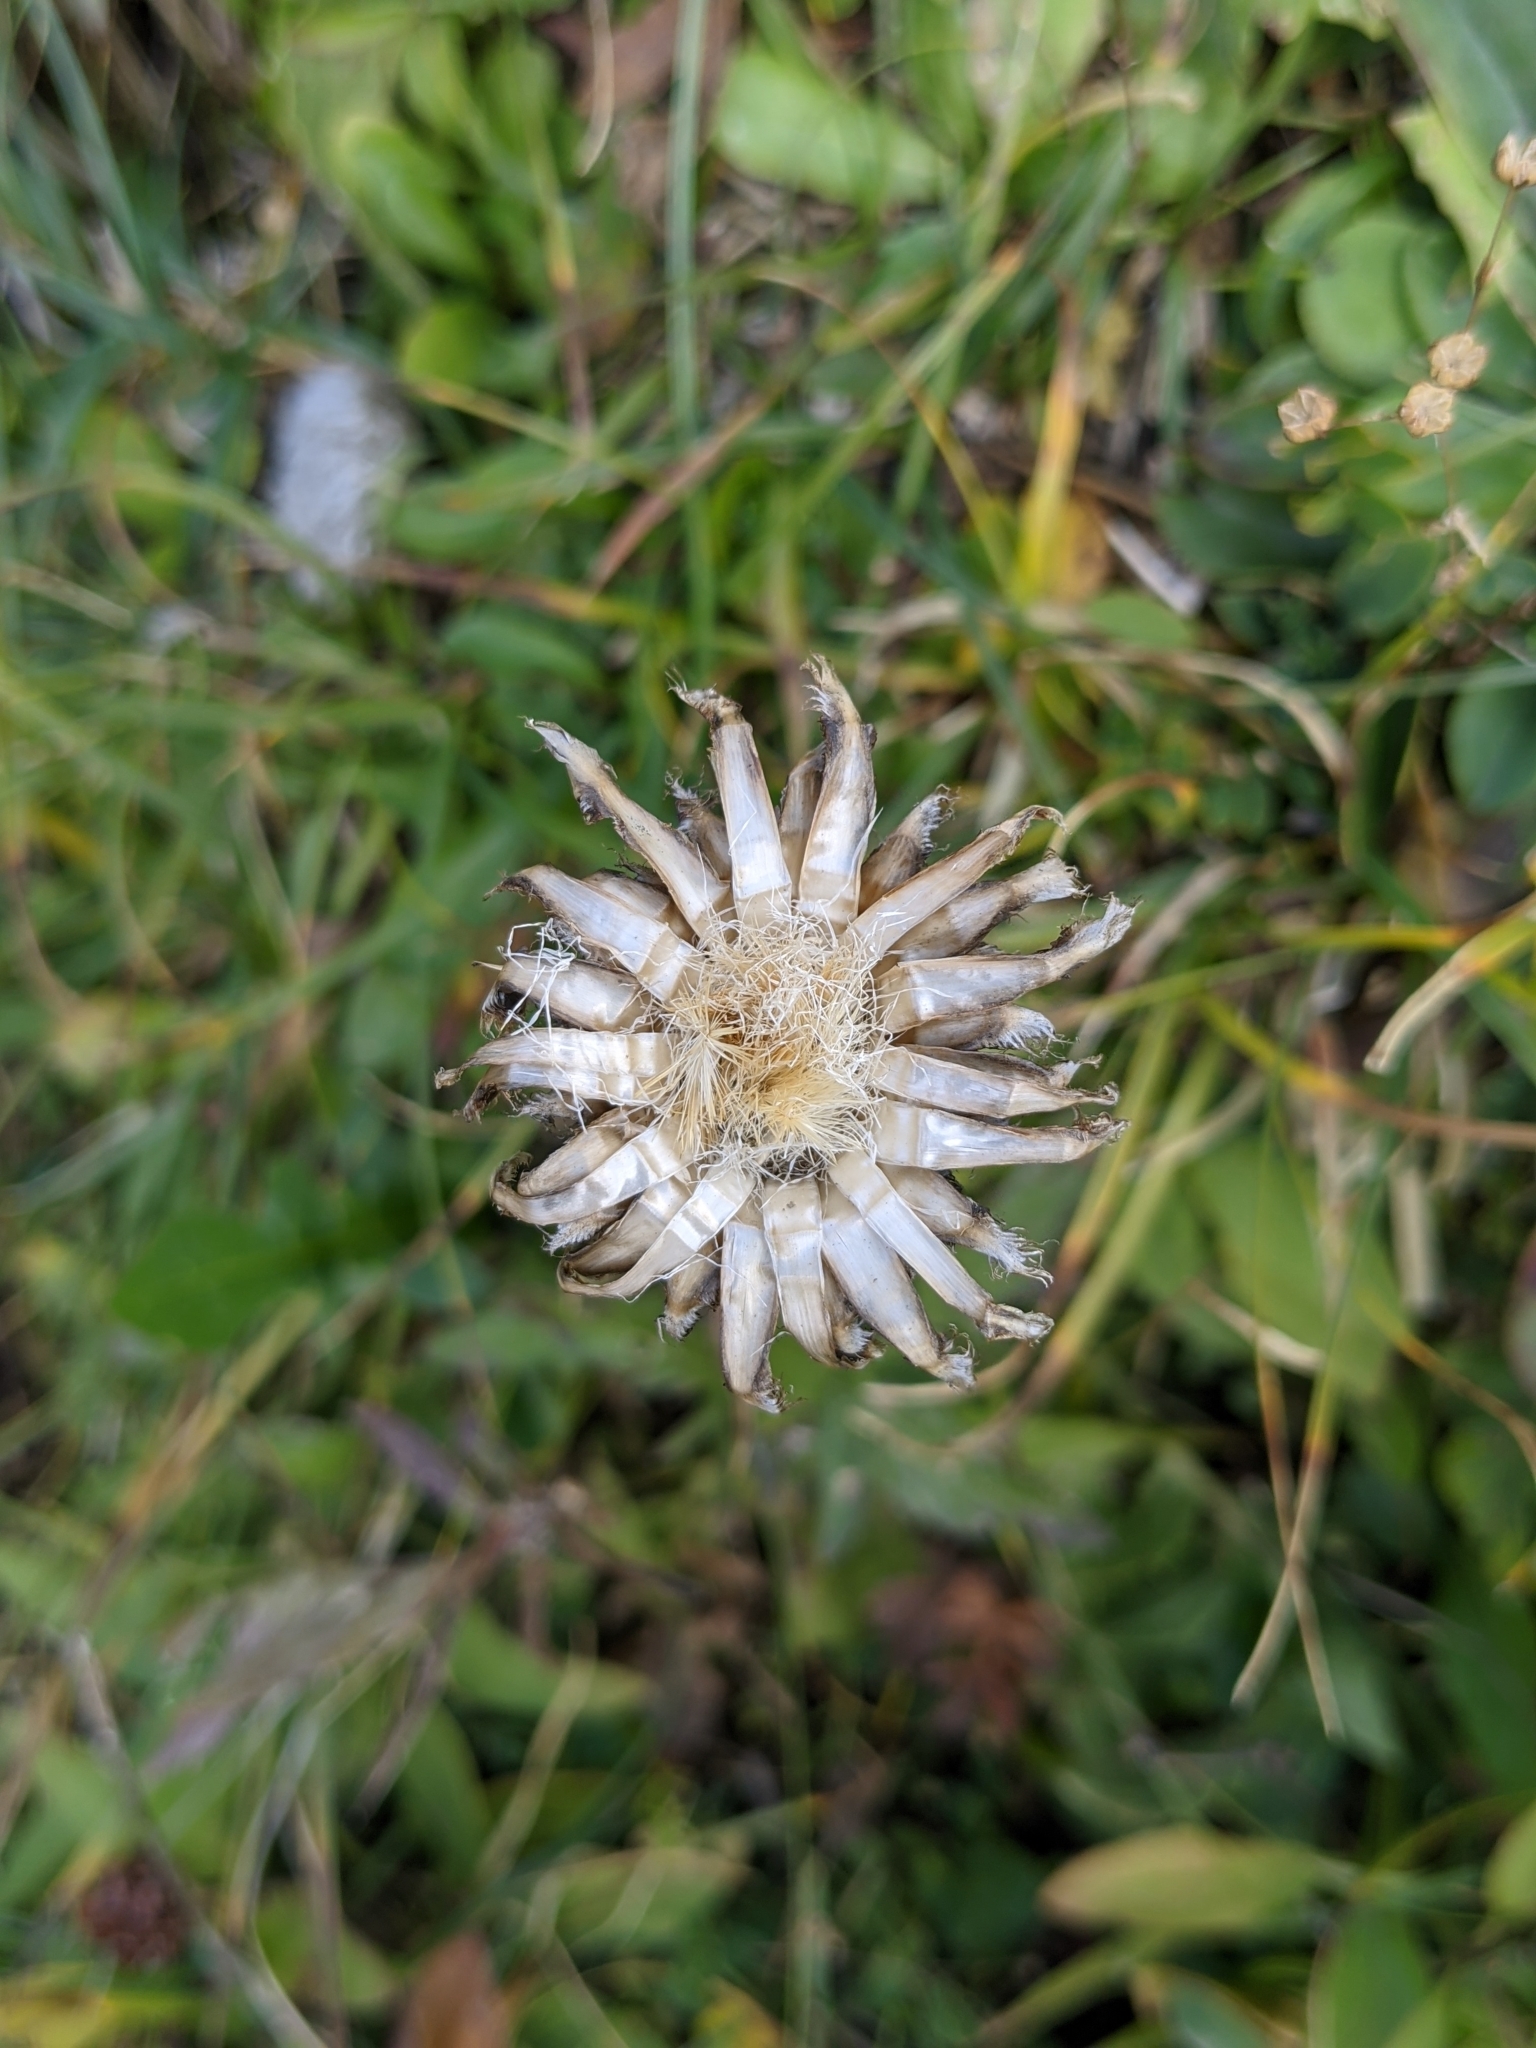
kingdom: Plantae
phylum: Tracheophyta
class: Magnoliopsida
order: Asterales
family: Asteraceae
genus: Centaurea
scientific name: Centaurea
